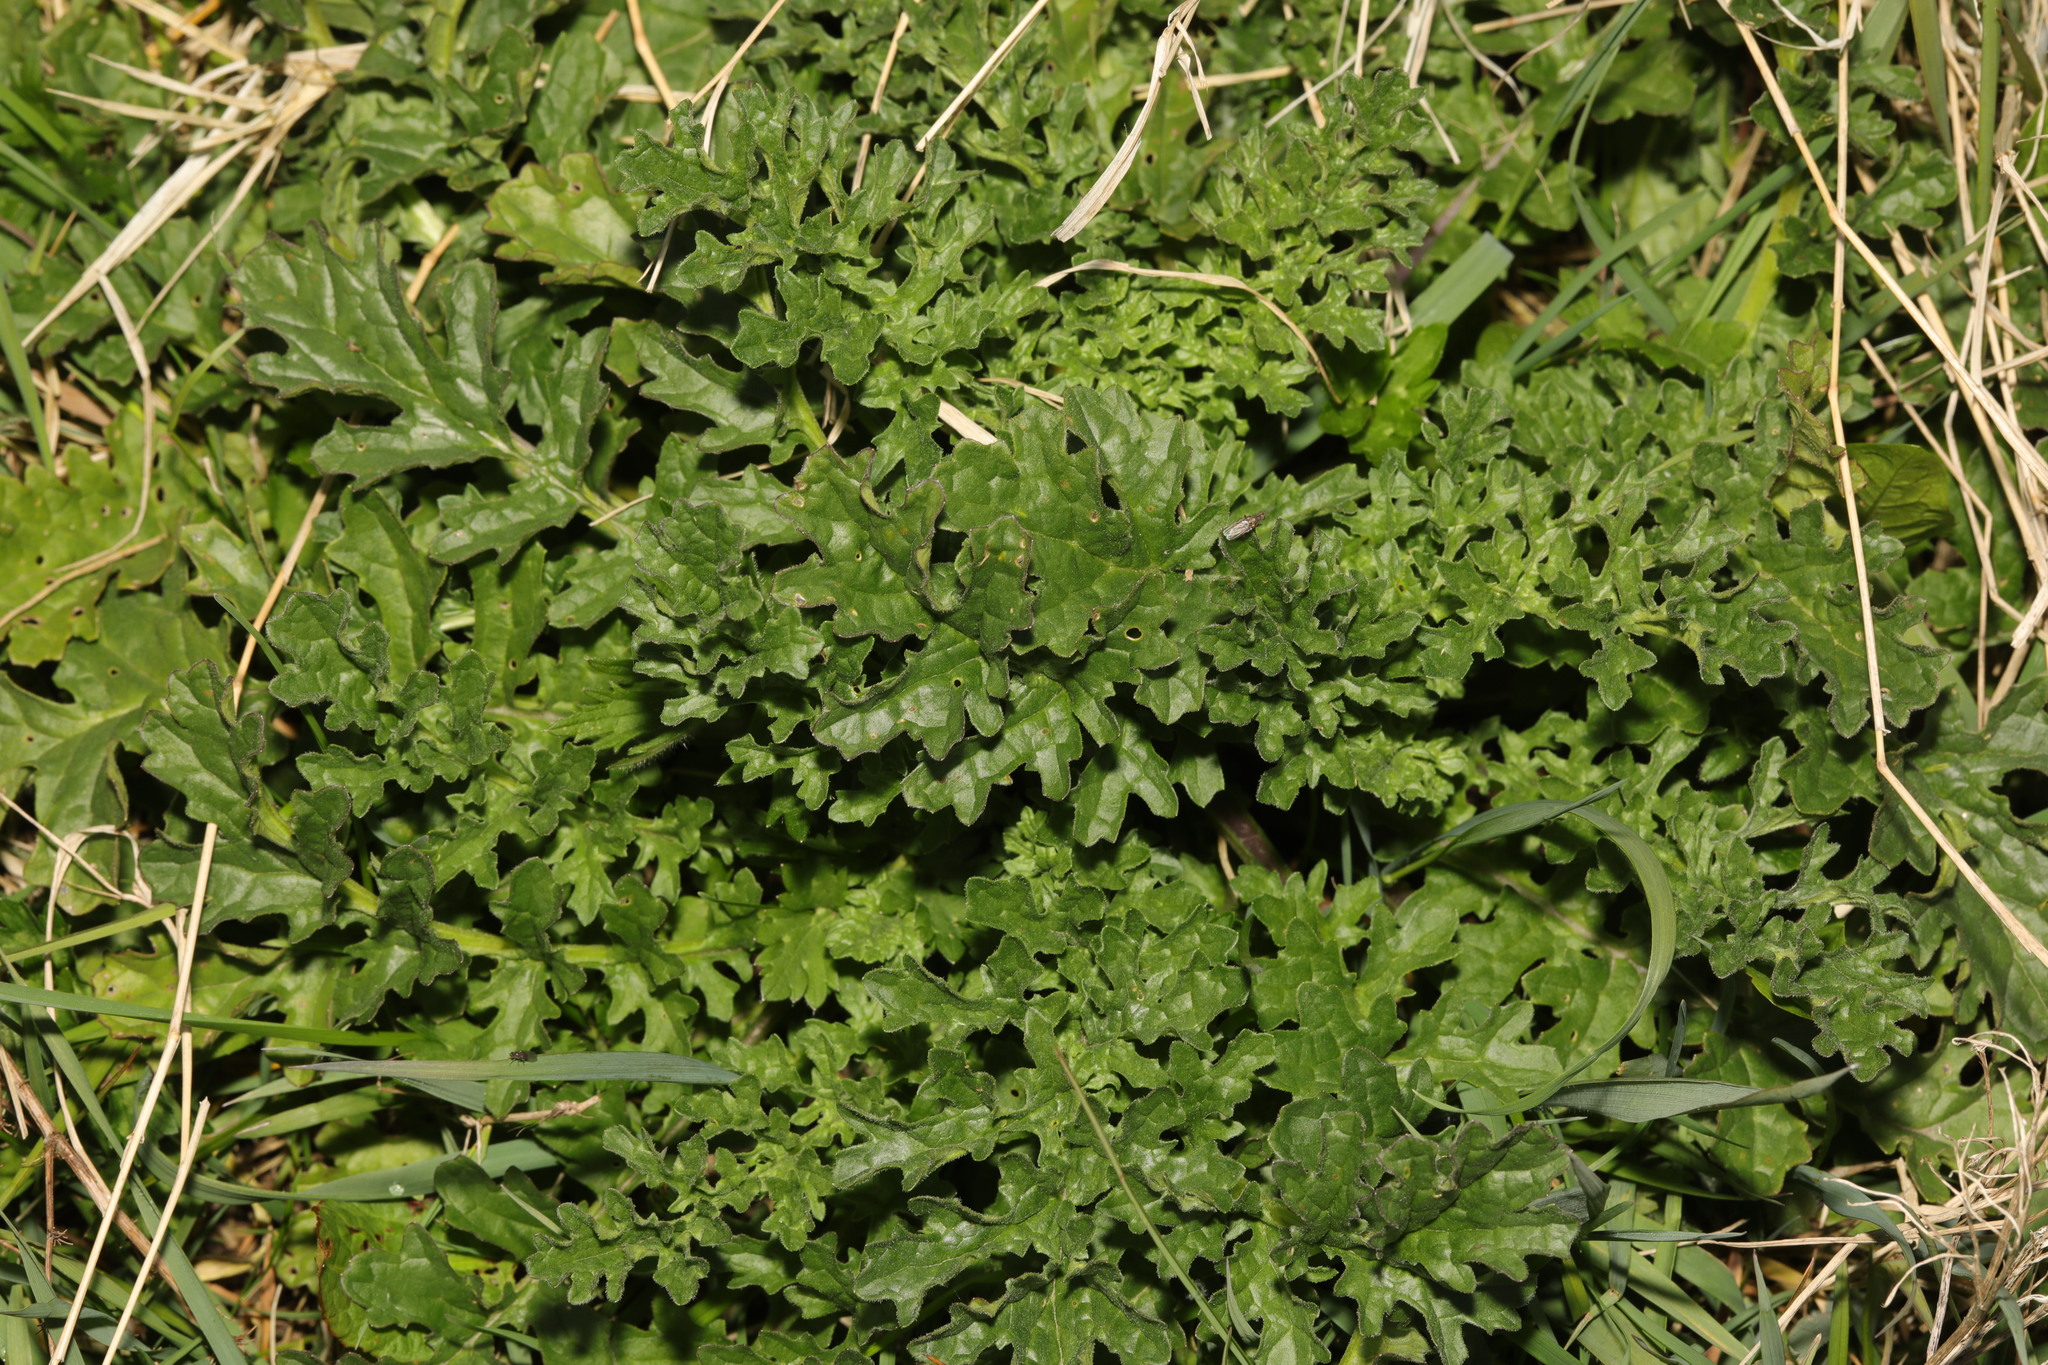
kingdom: Plantae
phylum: Tracheophyta
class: Magnoliopsida
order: Asterales
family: Asteraceae
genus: Jacobaea
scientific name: Jacobaea vulgaris
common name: Stinking willie
